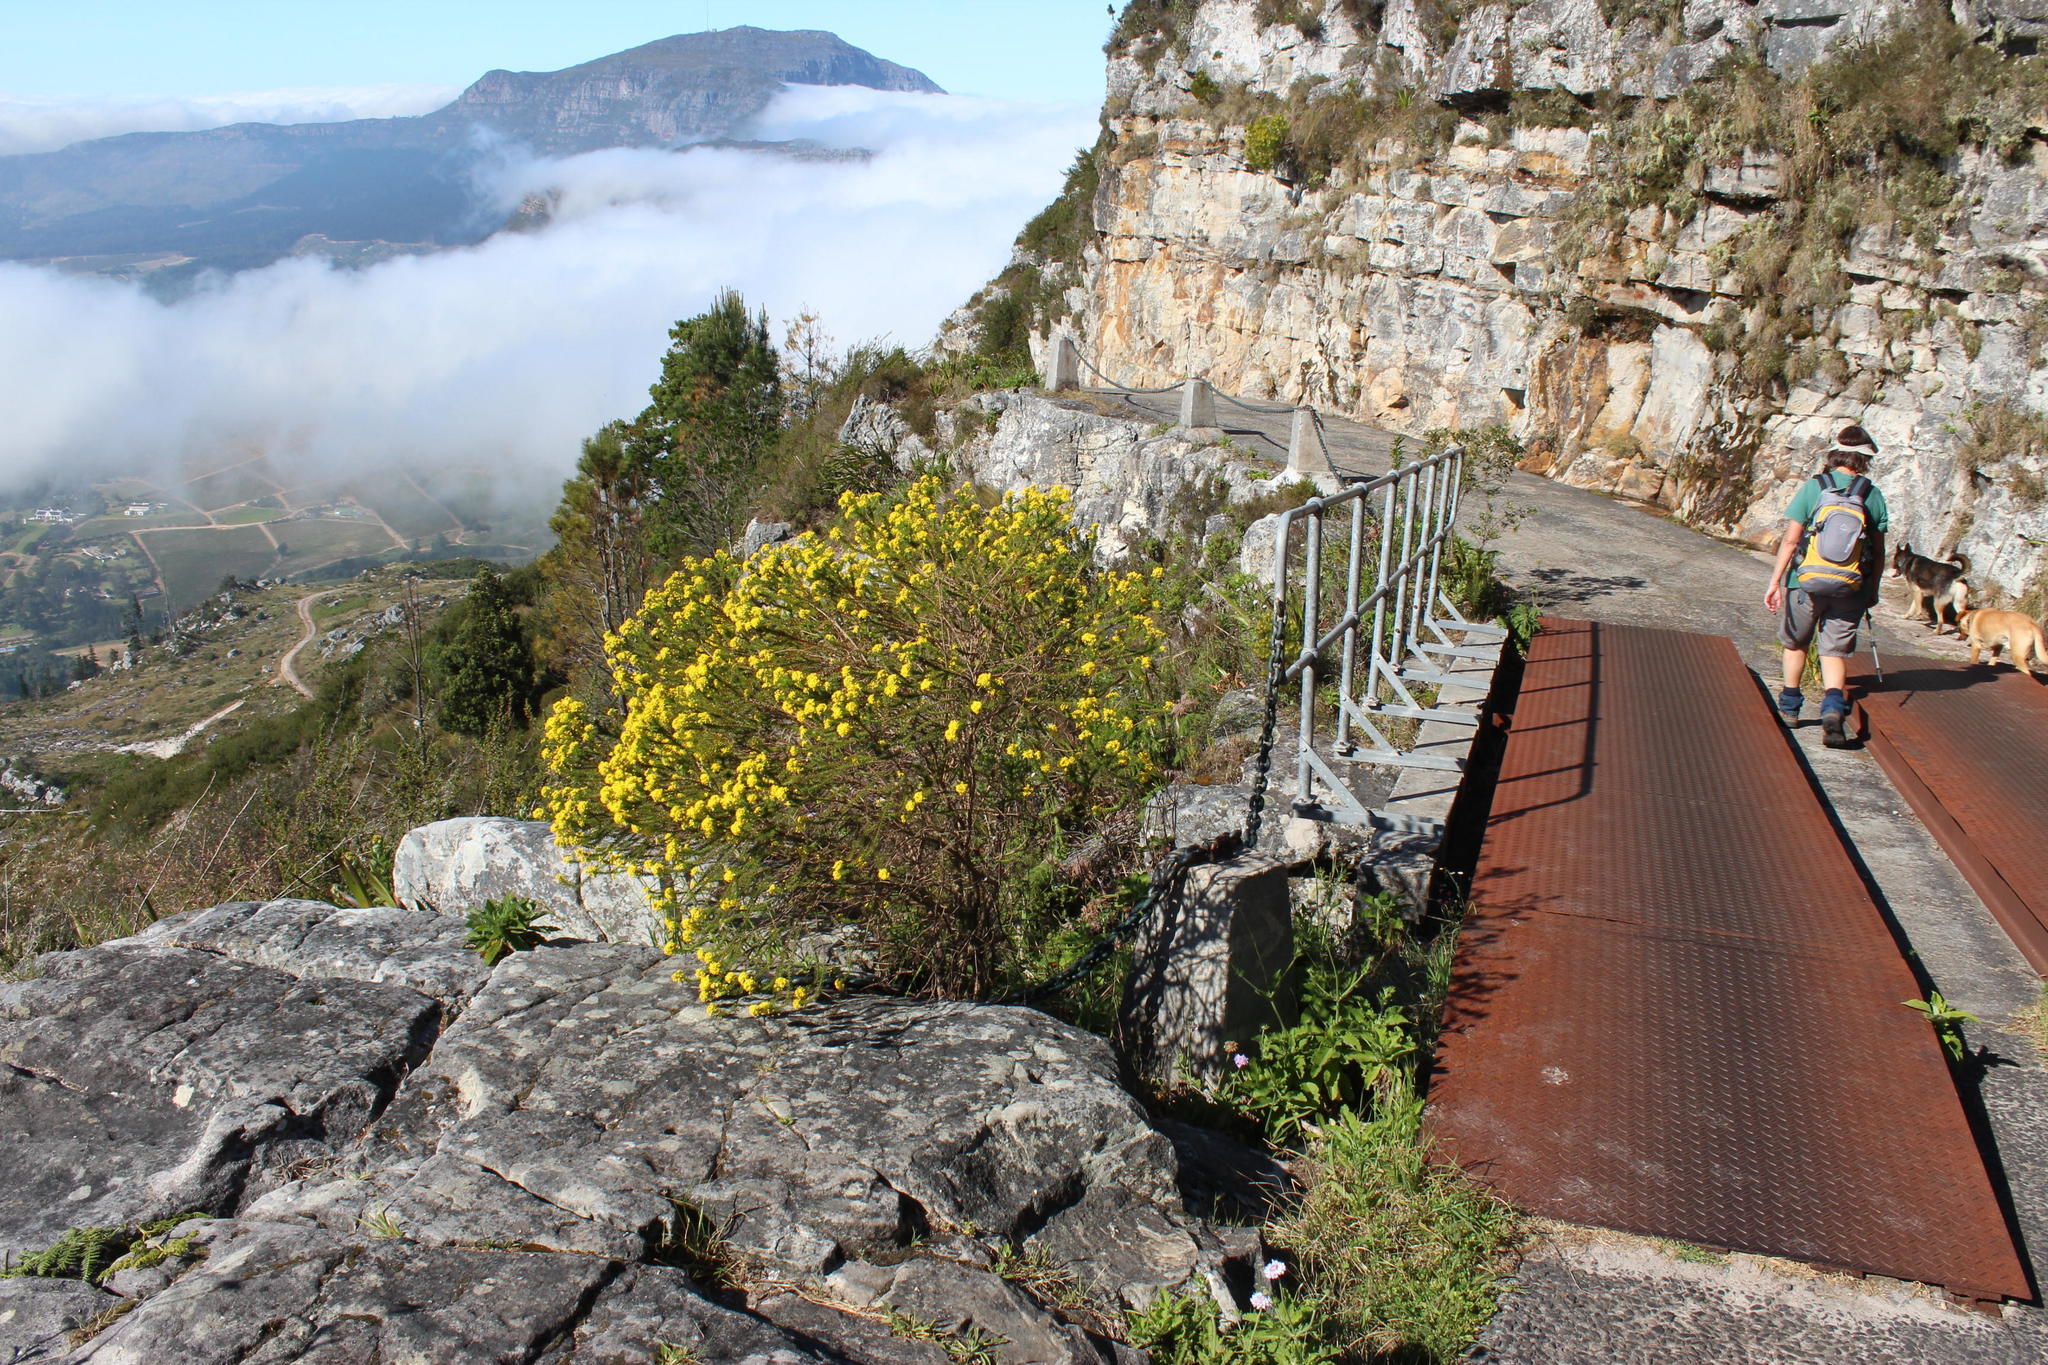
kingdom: Plantae
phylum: Tracheophyta
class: Magnoliopsida
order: Asterales
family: Asteraceae
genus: Euryops
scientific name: Euryops virgineus
